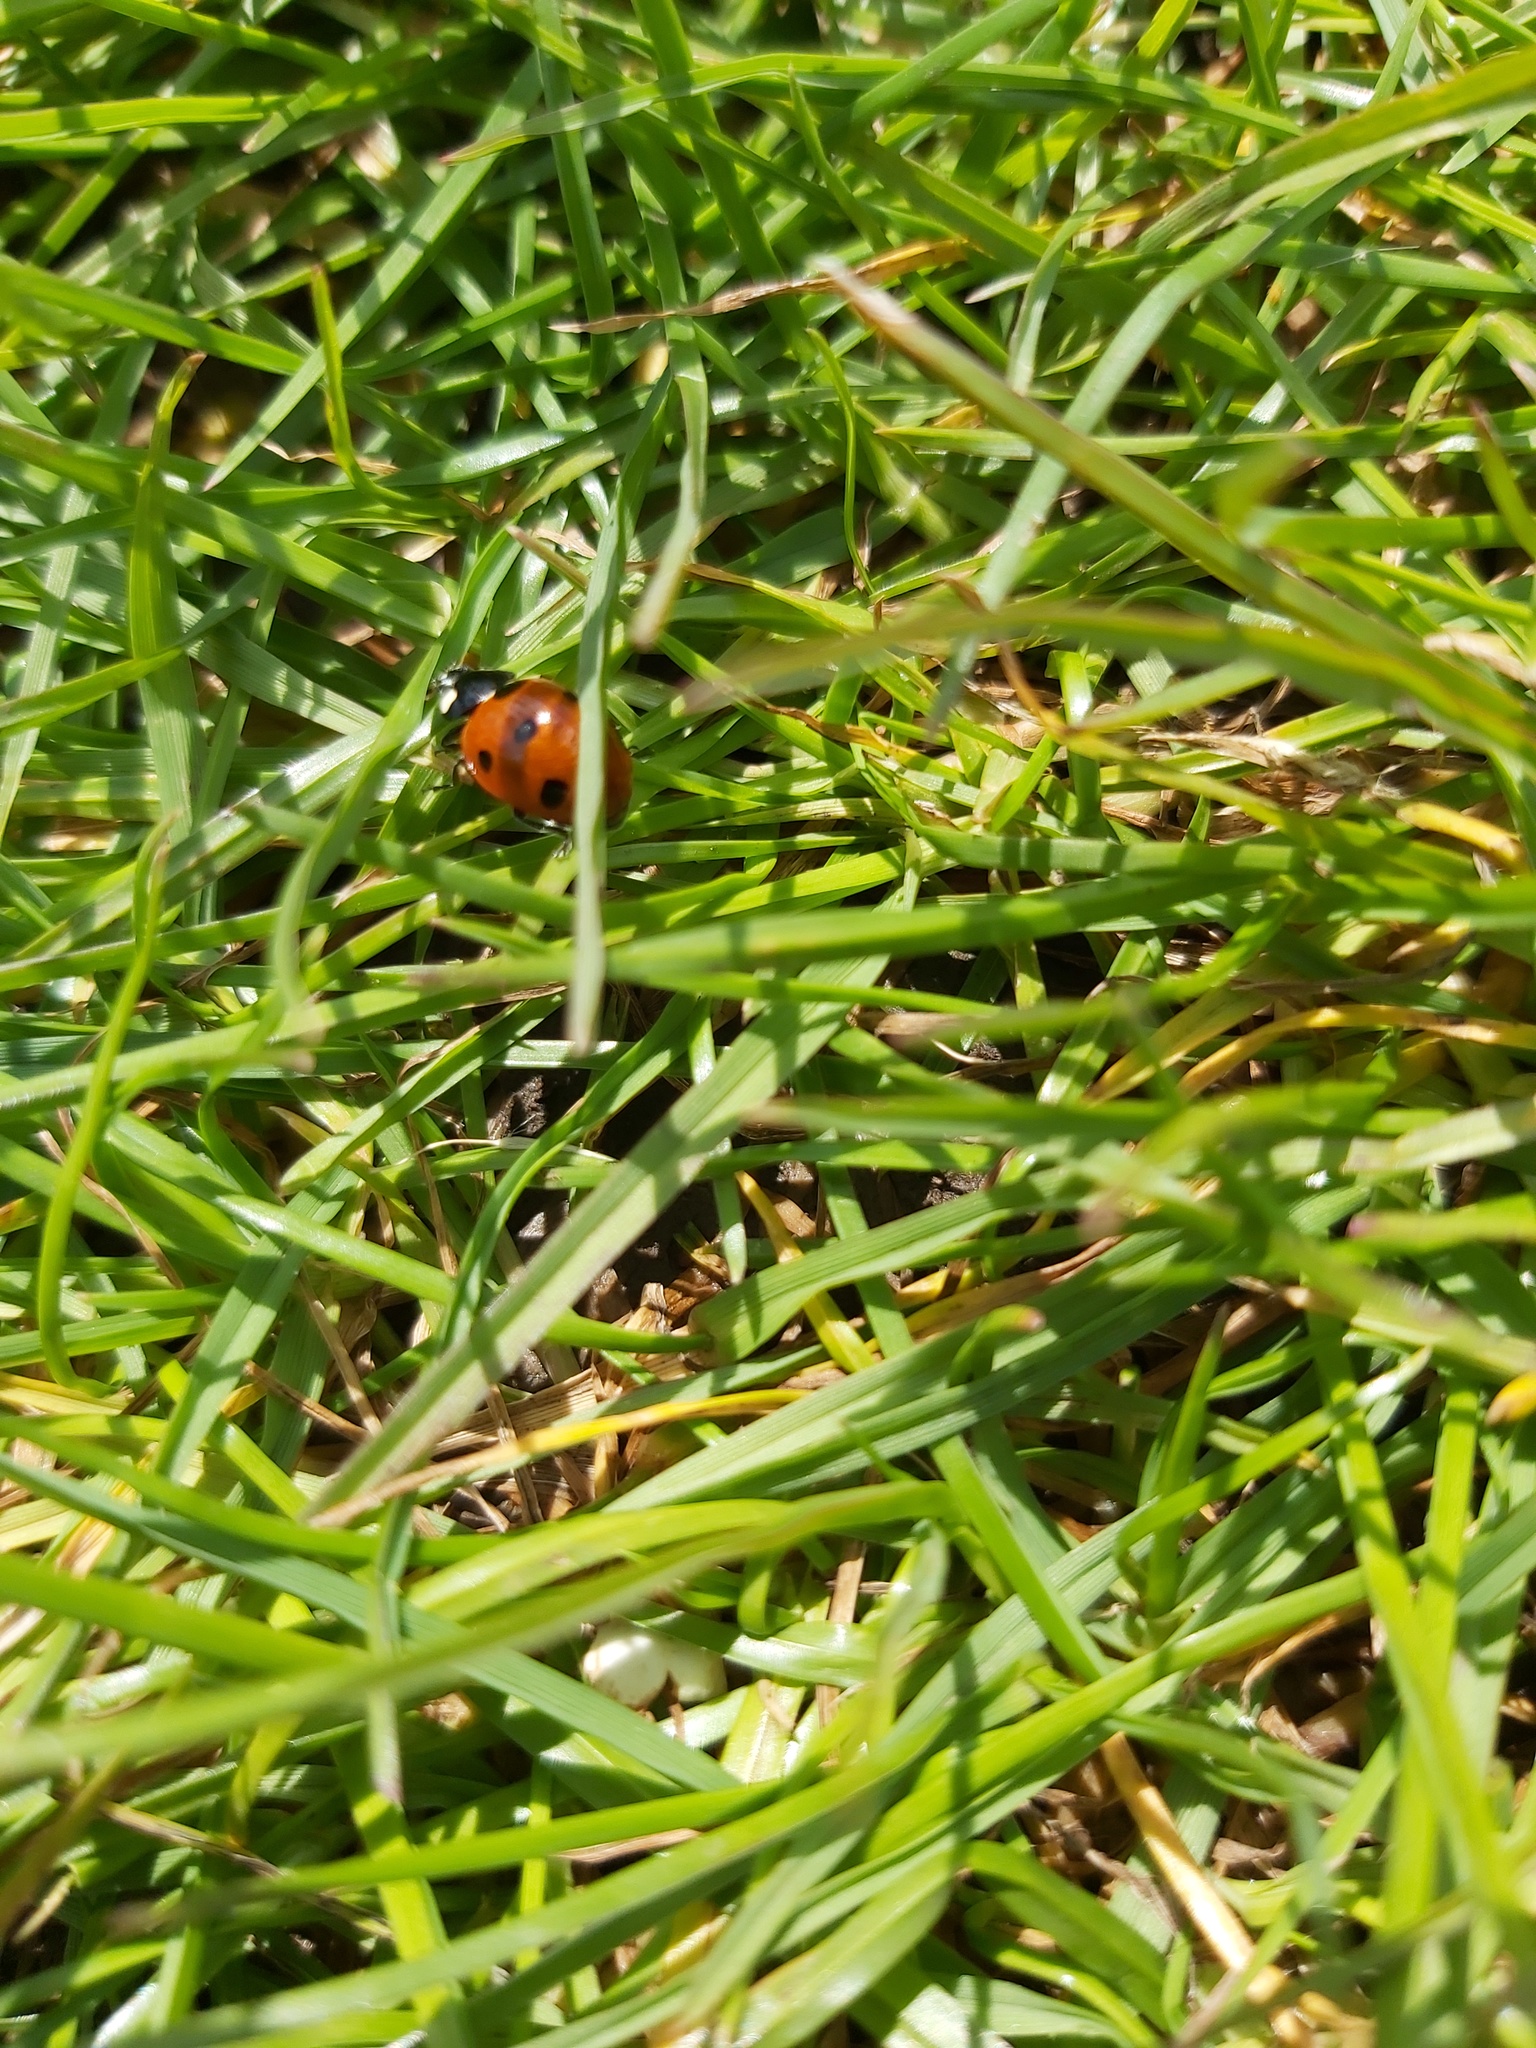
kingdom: Animalia
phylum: Arthropoda
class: Insecta
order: Coleoptera
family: Coccinellidae
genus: Coccinella
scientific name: Coccinella septempunctata
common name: Sevenspotted lady beetle
